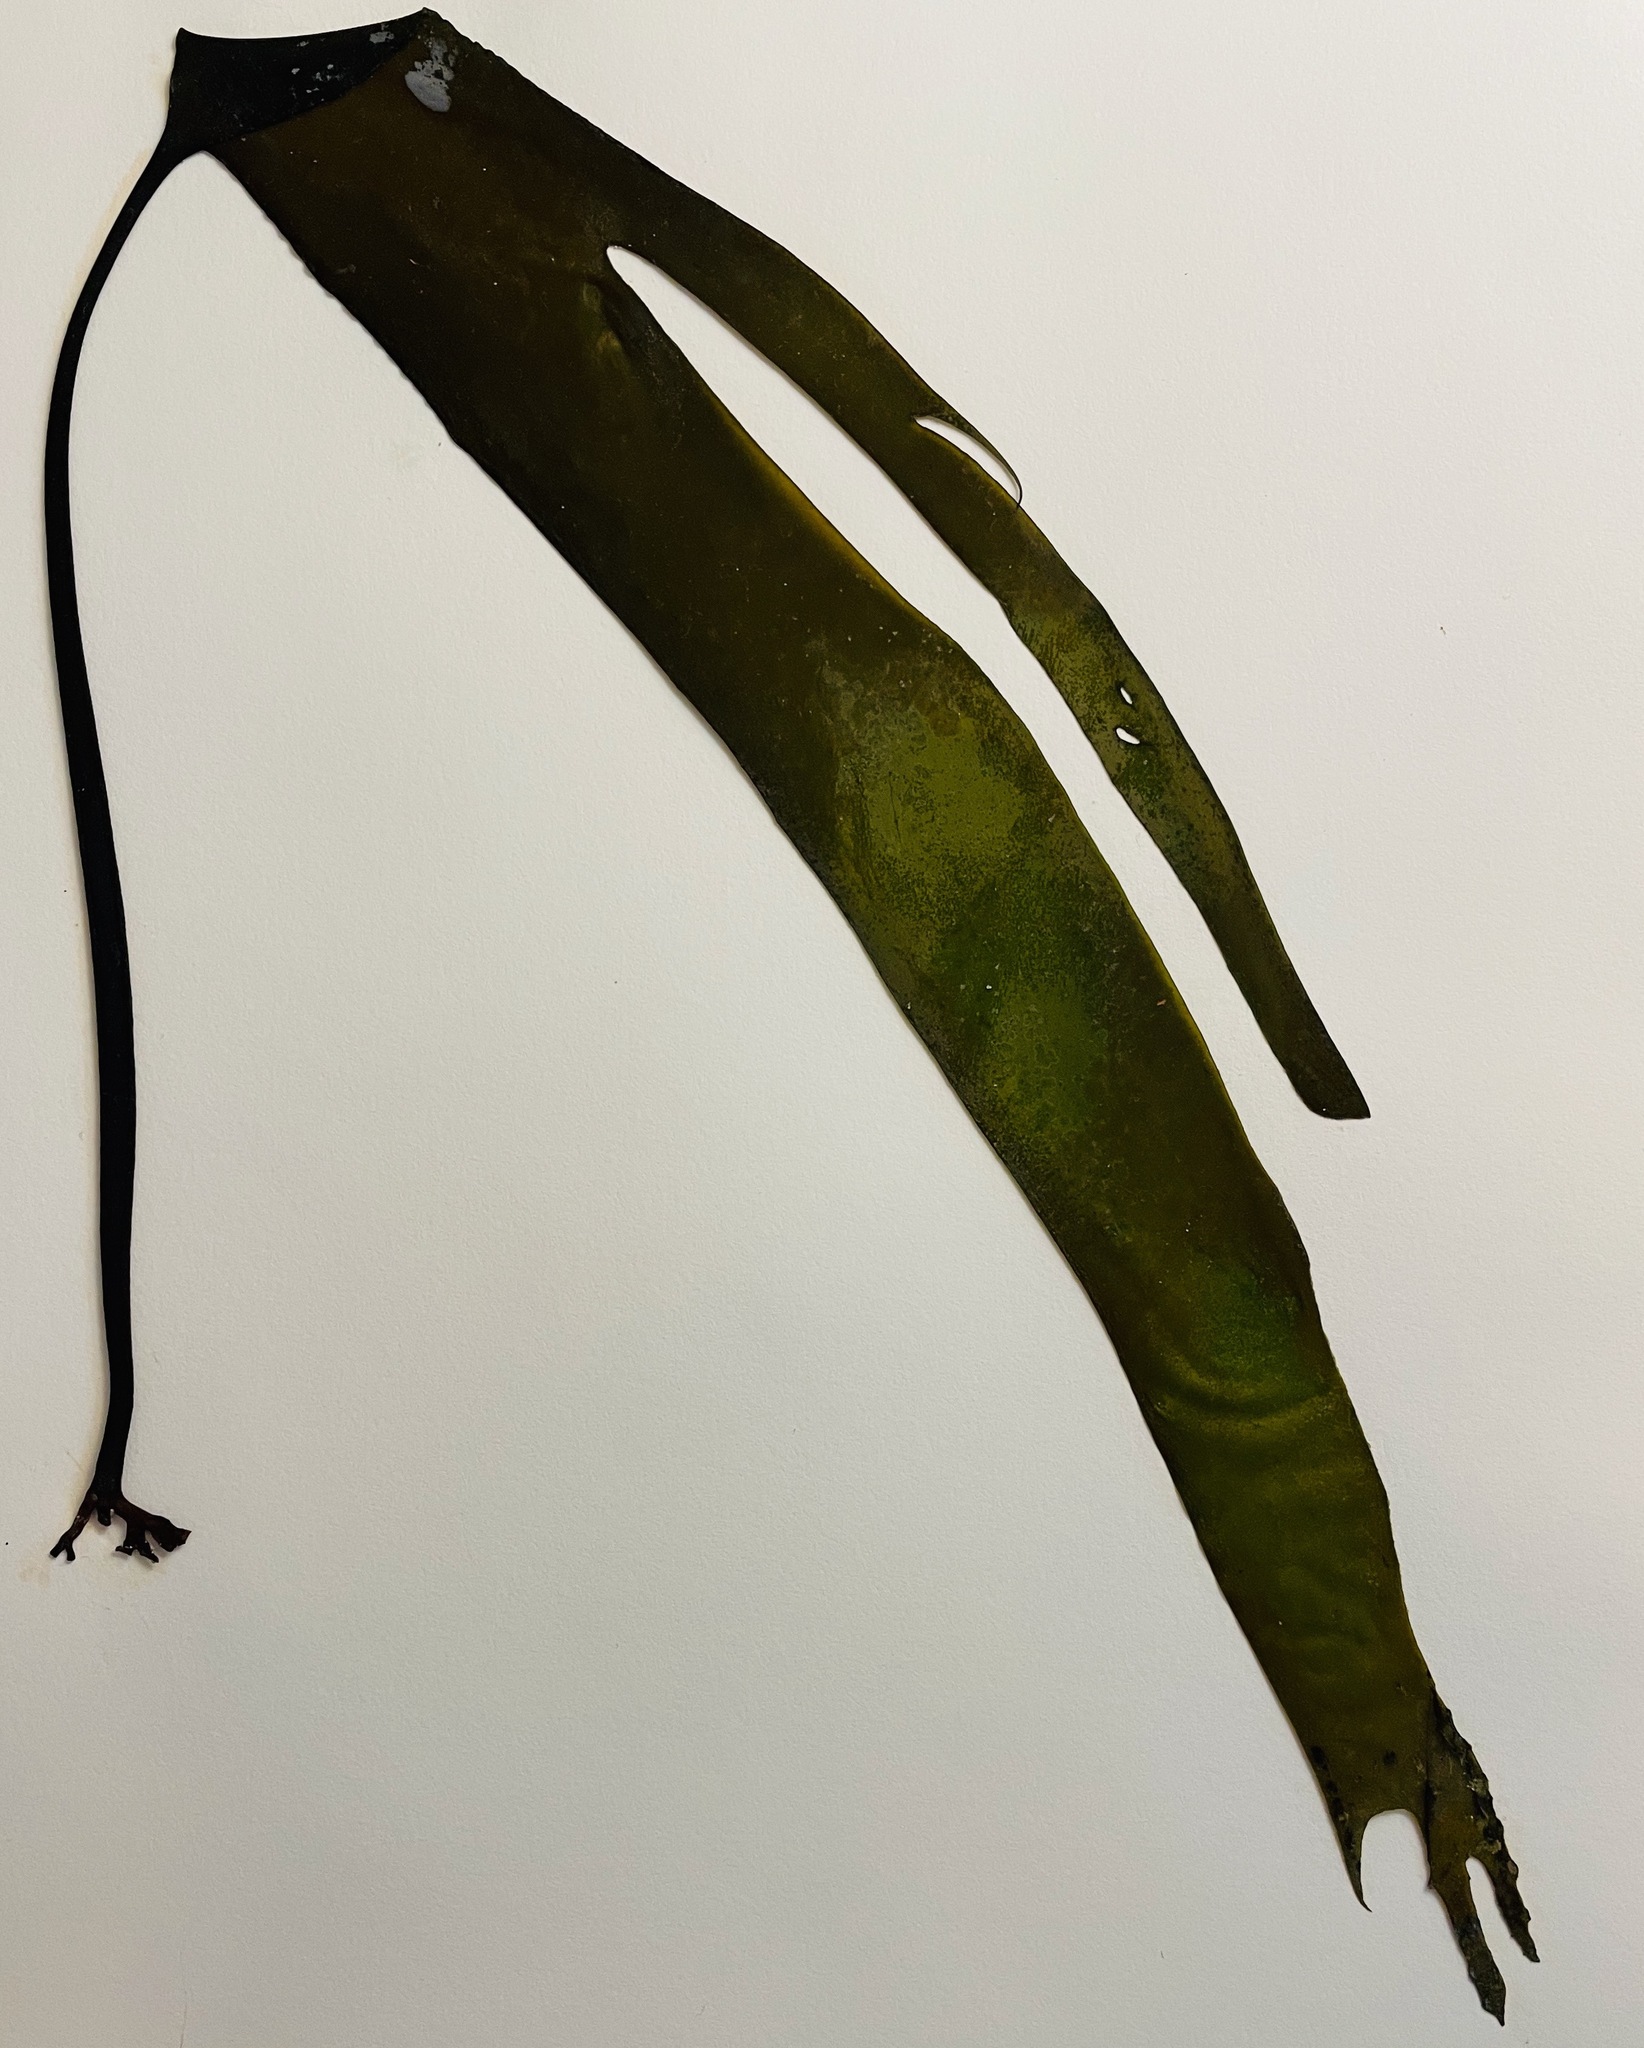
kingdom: Chromista
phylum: Ochrophyta
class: Phaeophyceae
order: Laminariales
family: Laminariaceae
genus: Laminaria
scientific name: Laminaria setchellii
